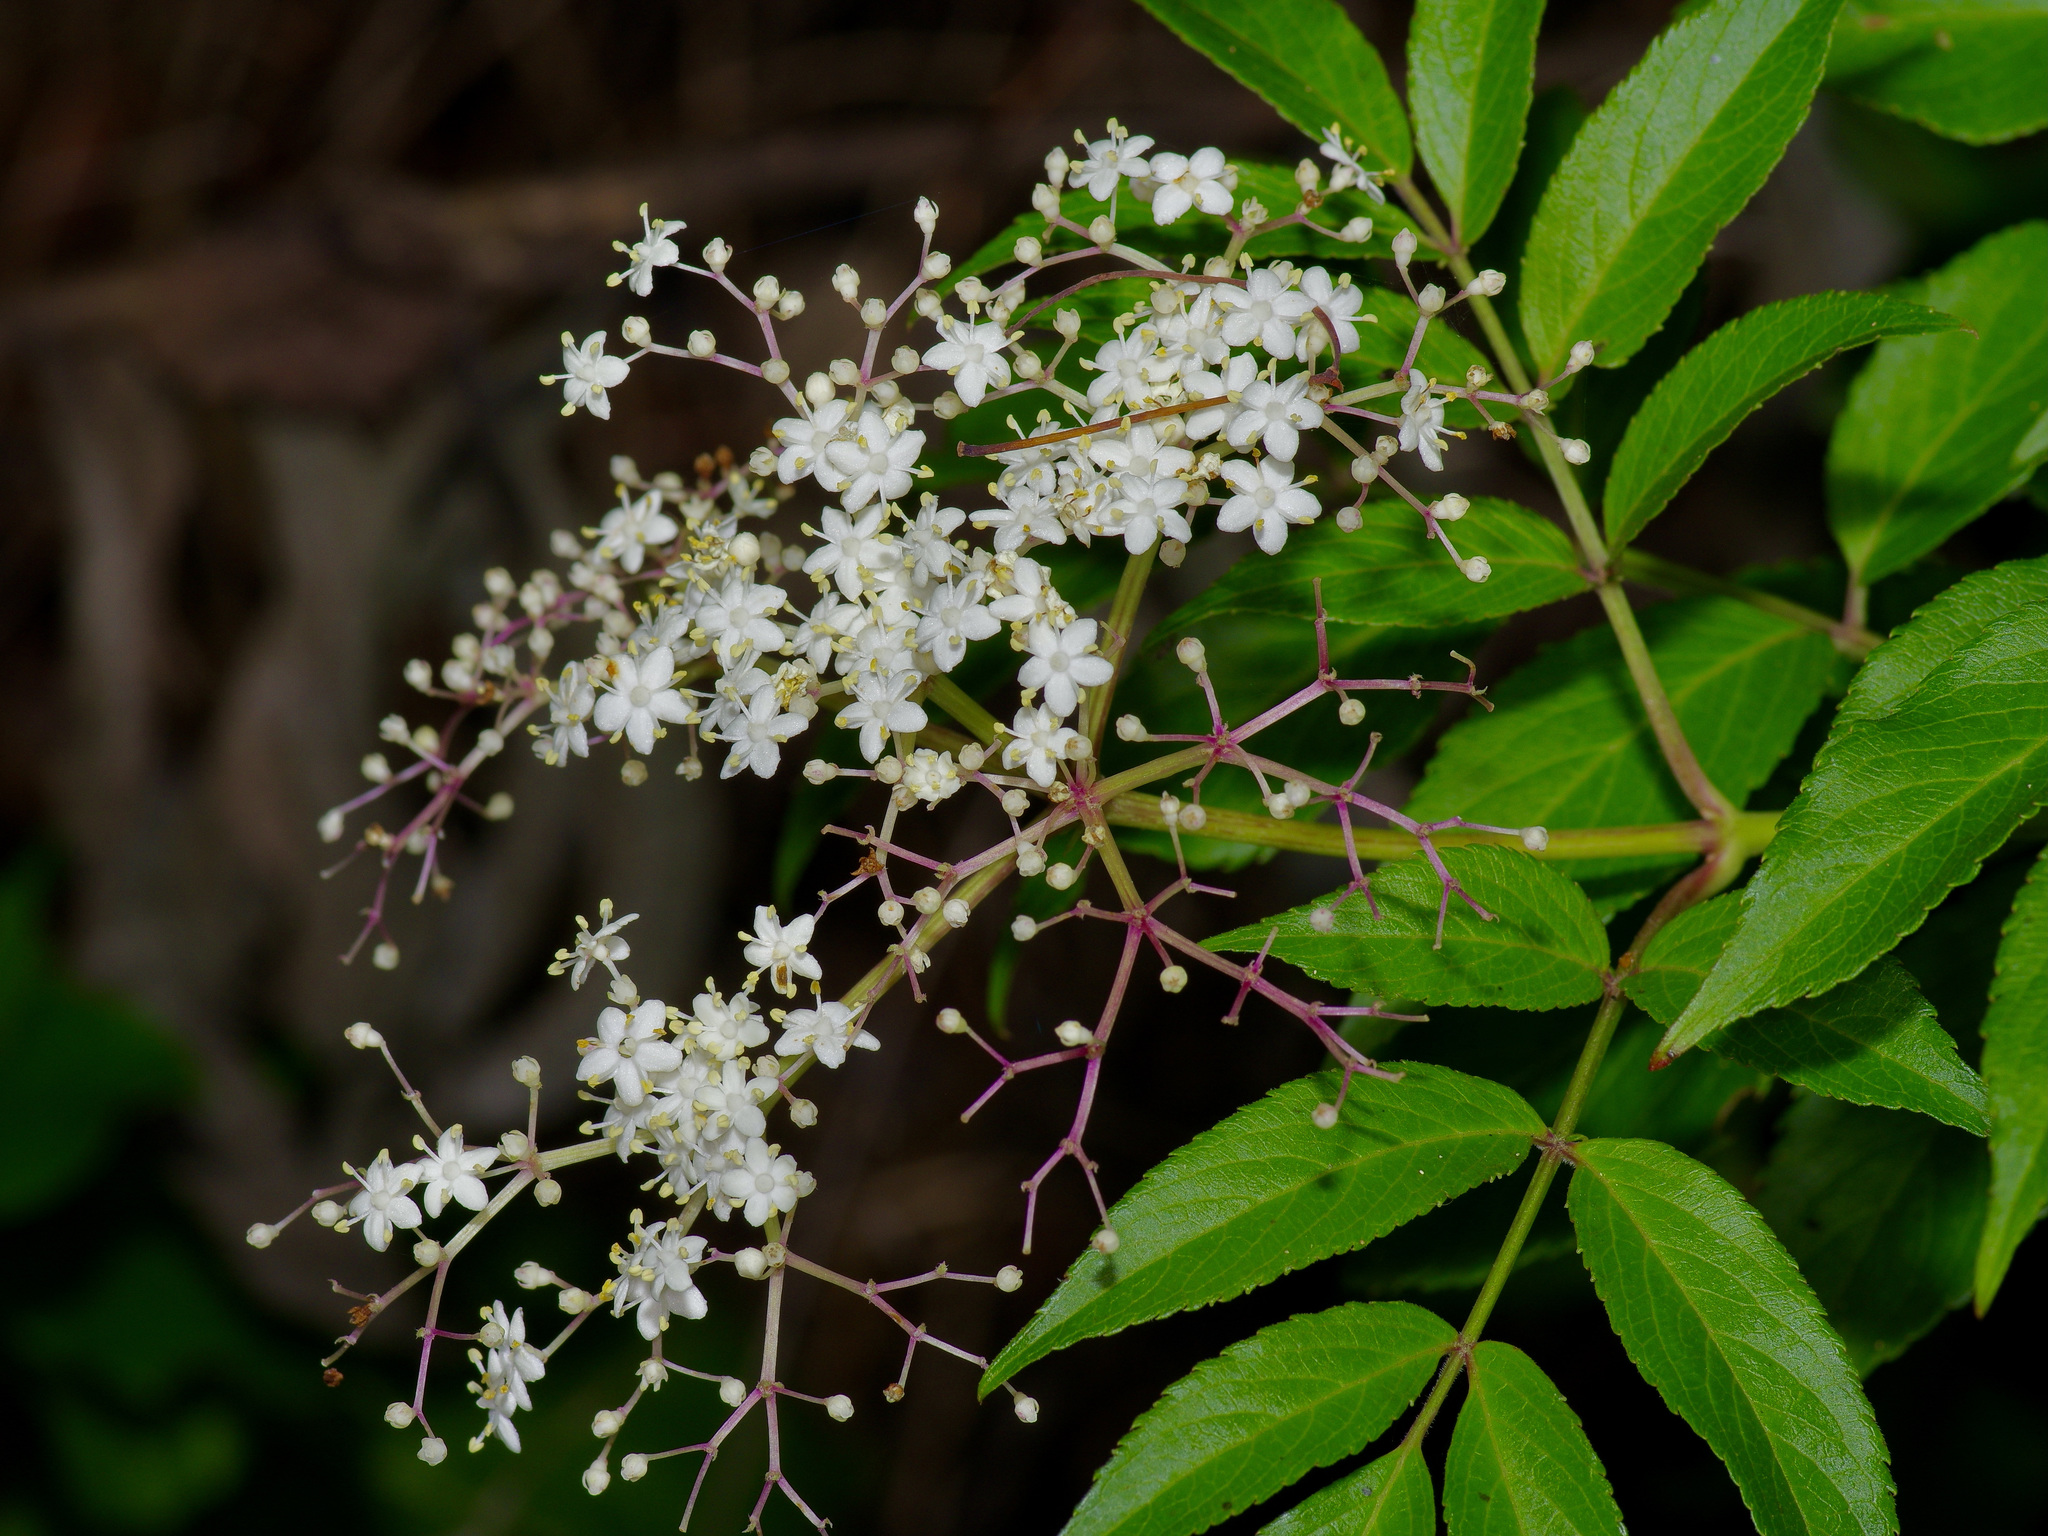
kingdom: Plantae
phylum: Tracheophyta
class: Magnoliopsida
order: Dipsacales
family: Viburnaceae
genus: Sambucus
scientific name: Sambucus canadensis
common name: American elder
